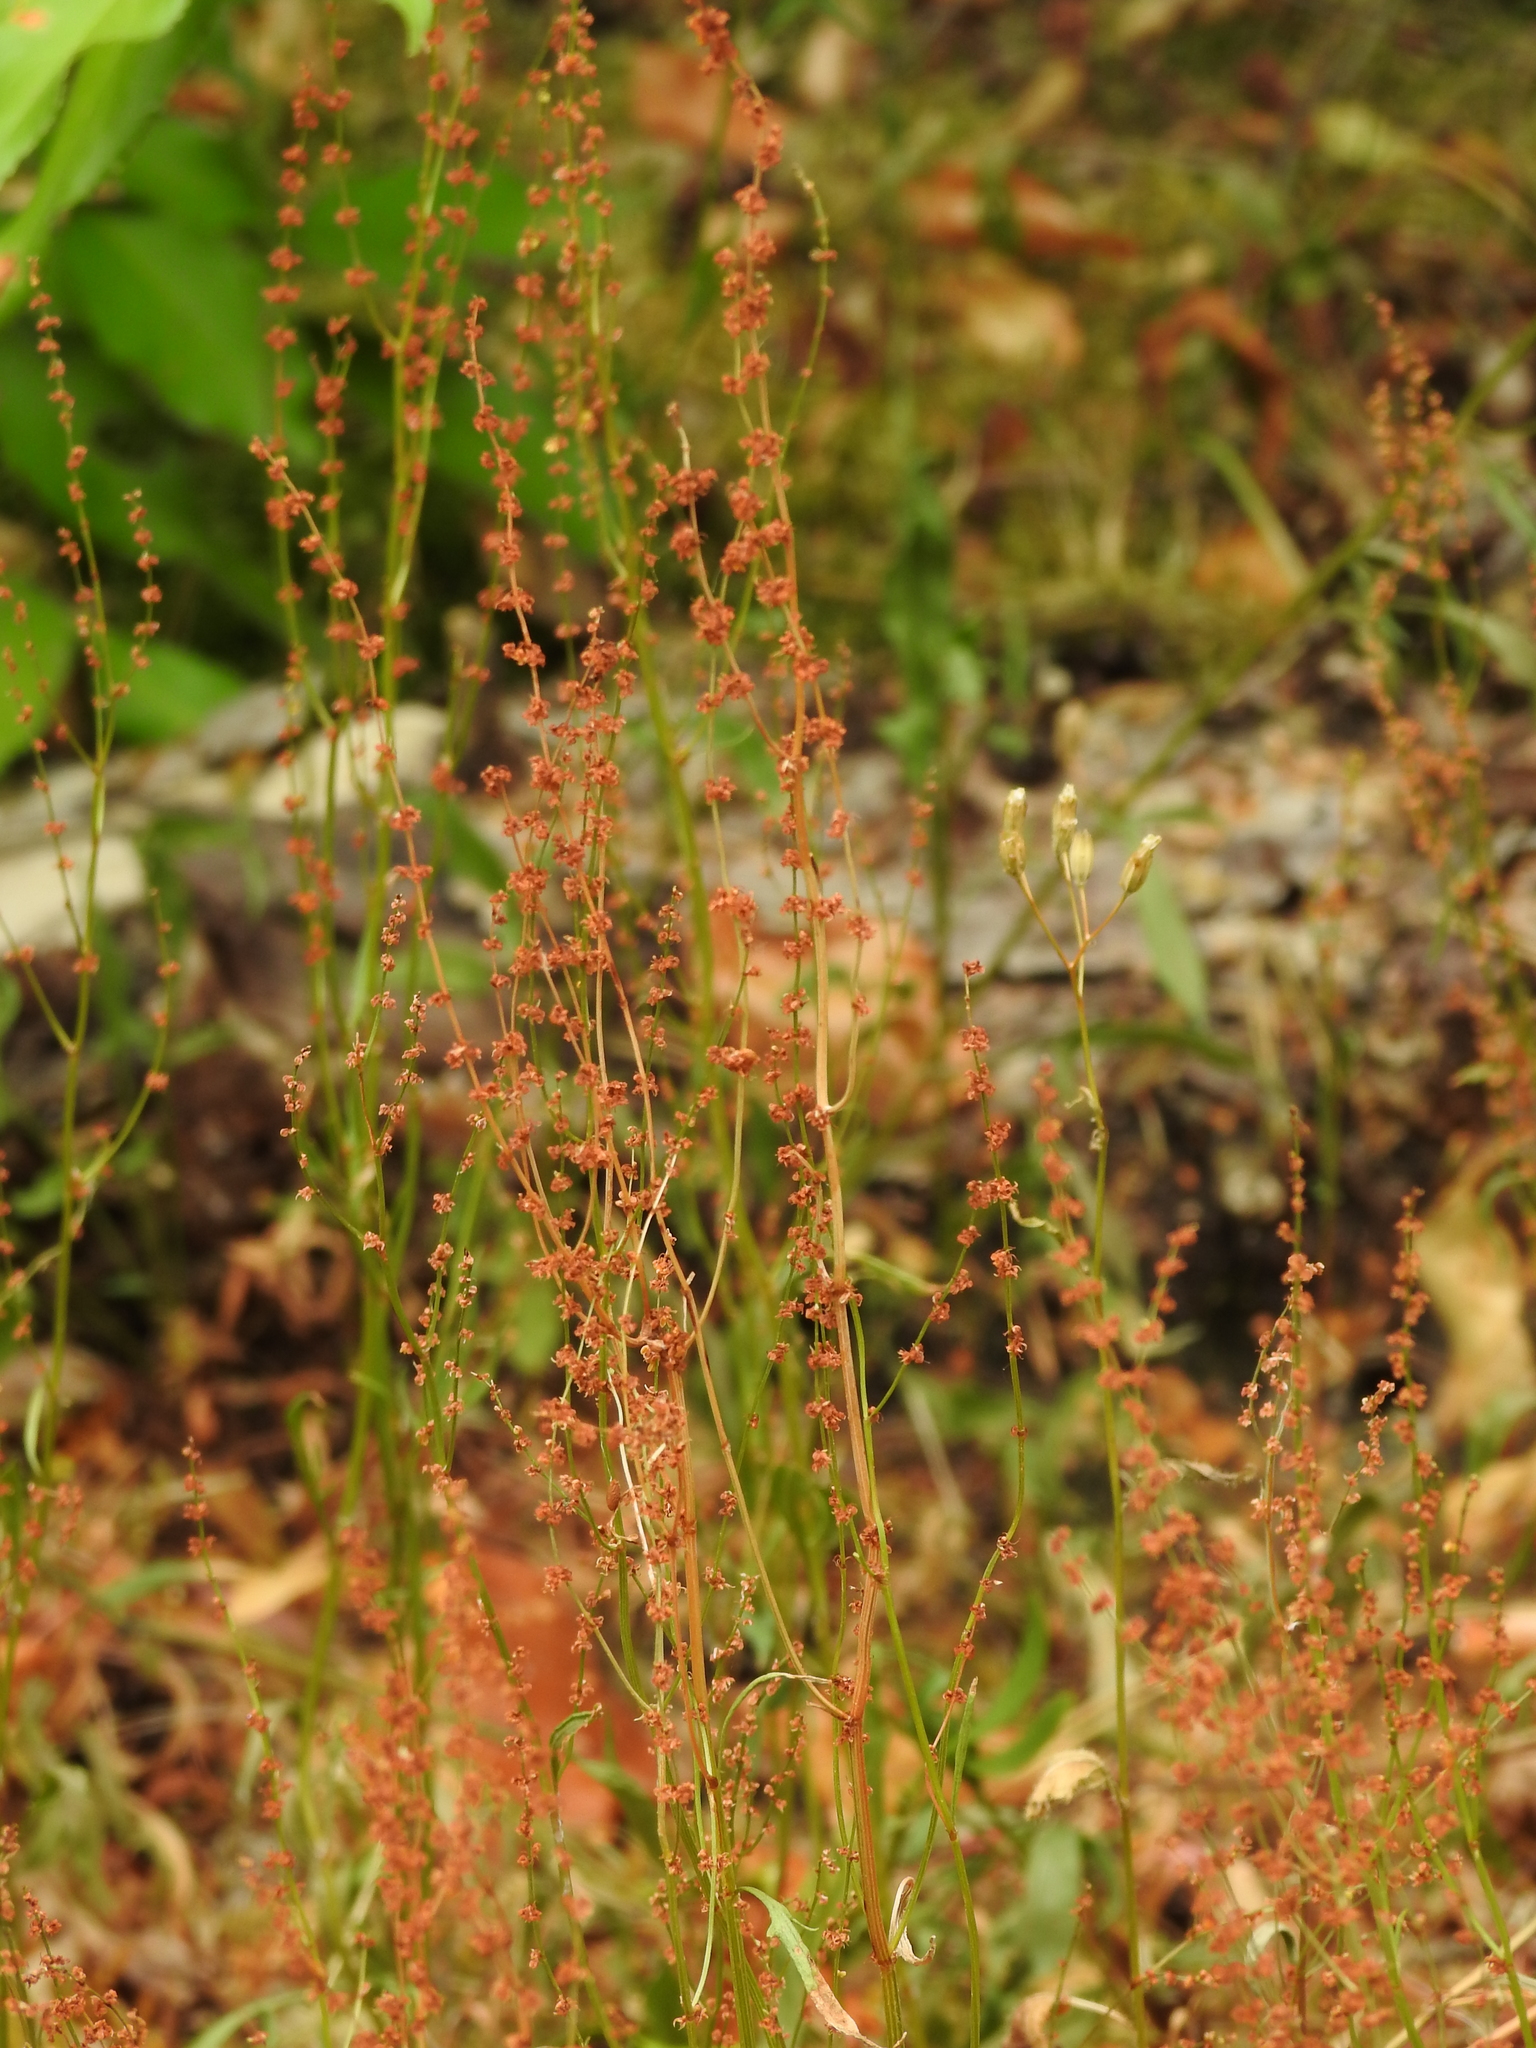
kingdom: Plantae
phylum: Tracheophyta
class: Magnoliopsida
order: Caryophyllales
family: Polygonaceae
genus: Rumex
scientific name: Rumex acetosella
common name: Common sheep sorrel
